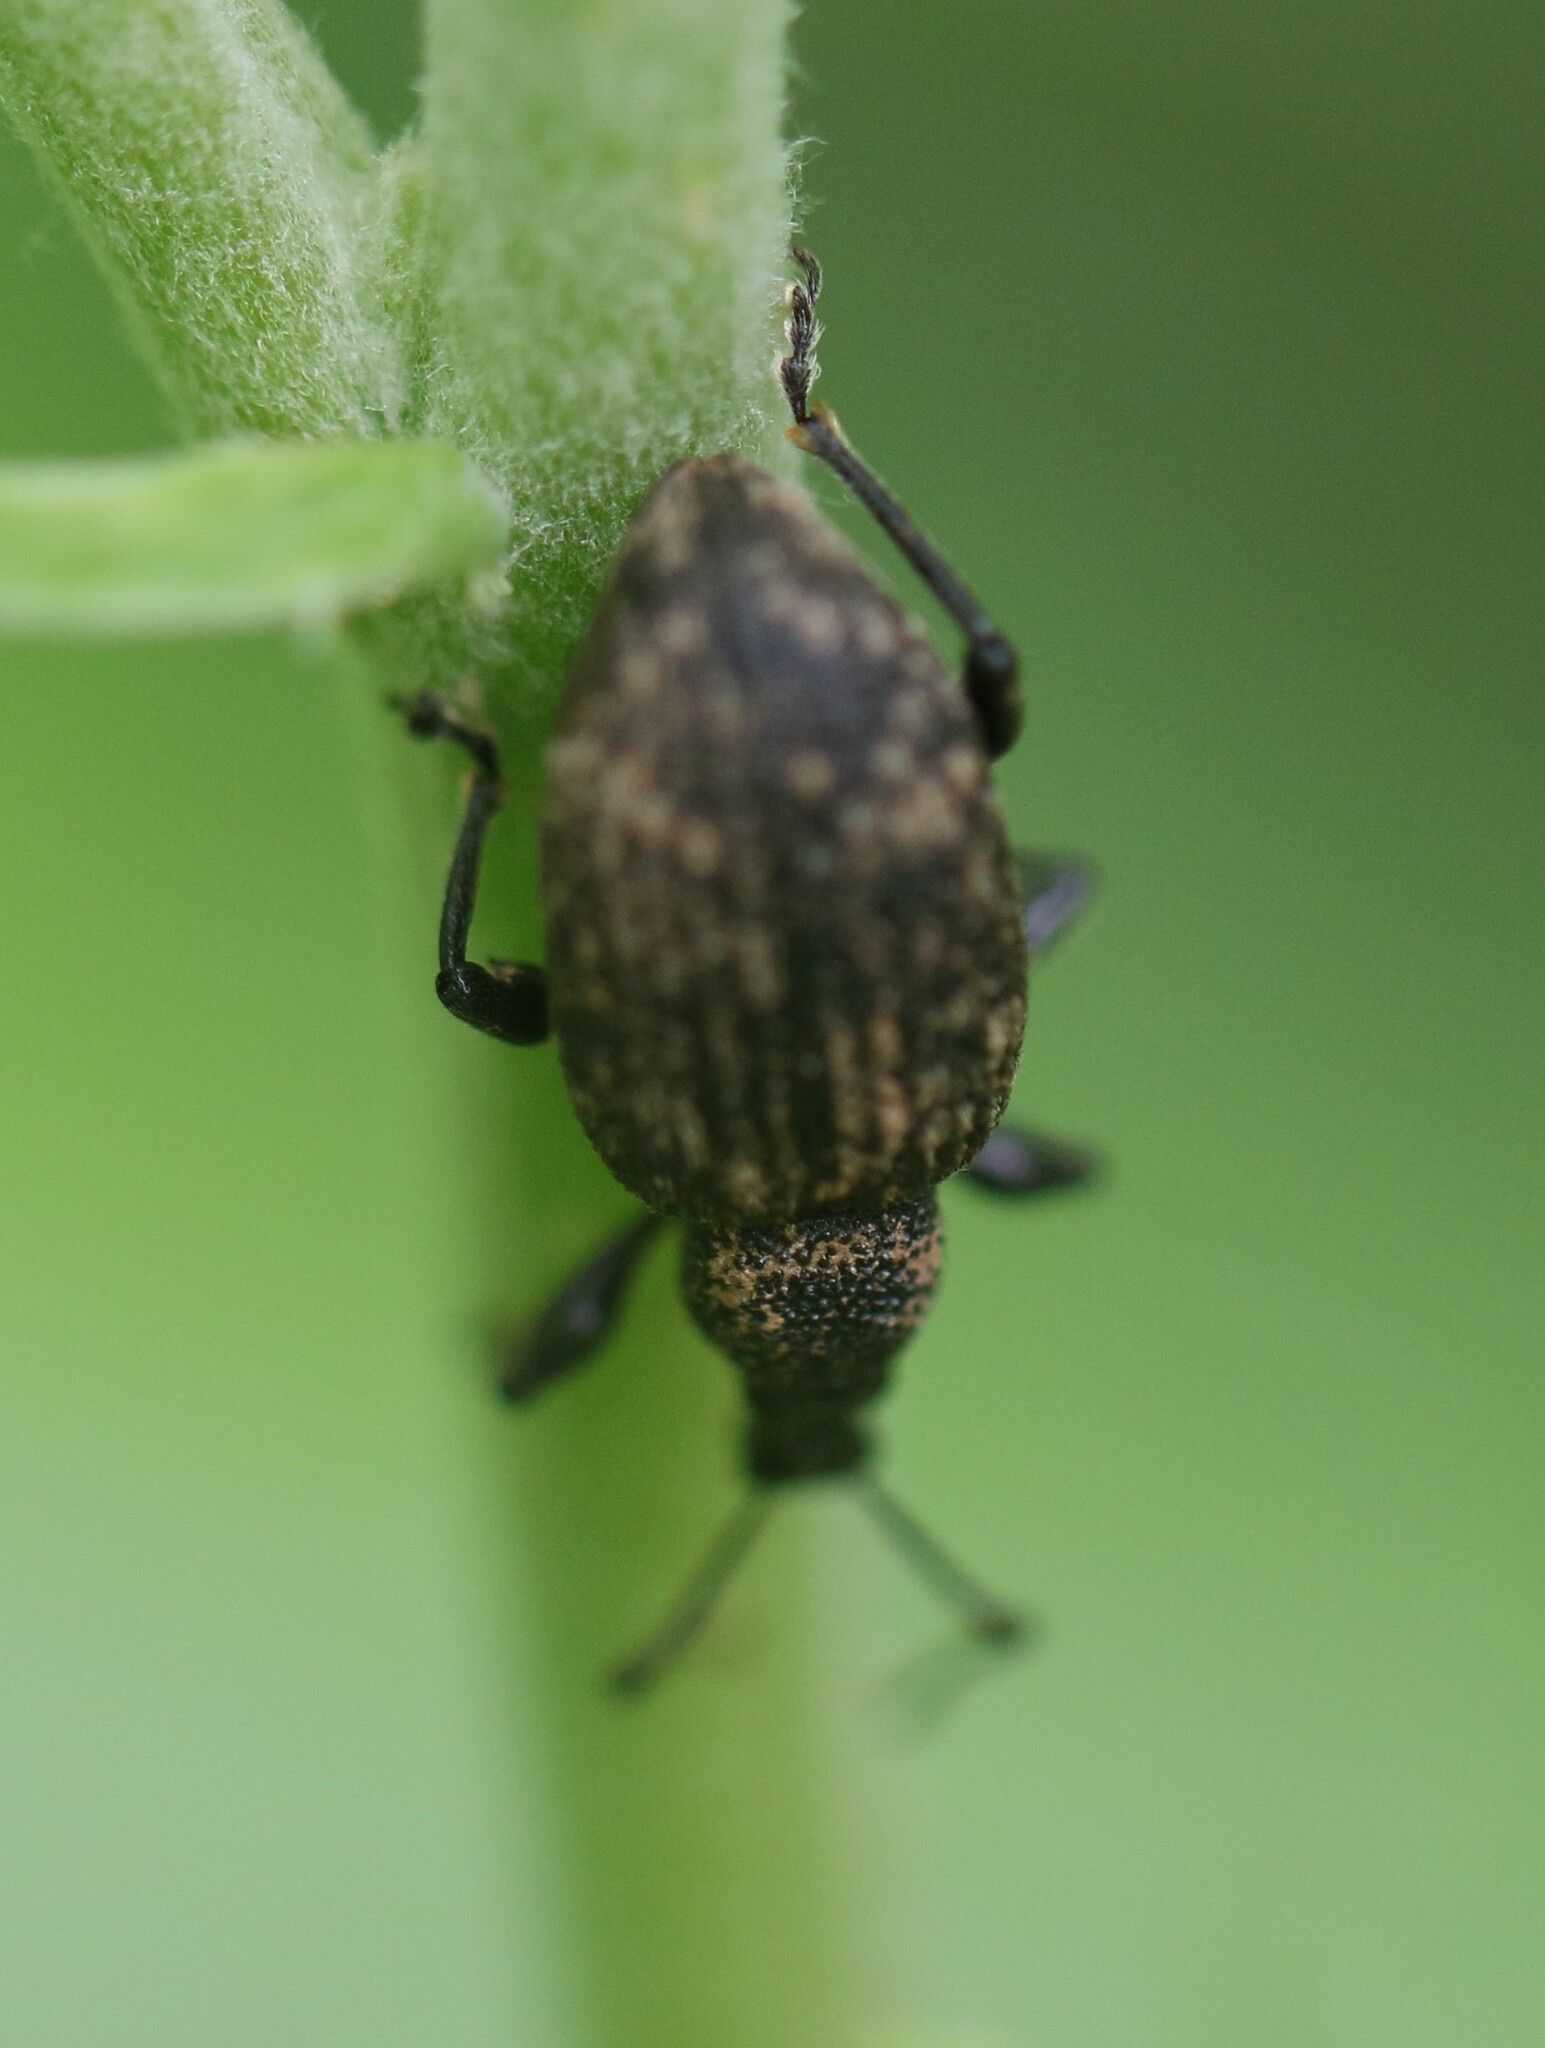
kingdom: Animalia
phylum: Arthropoda
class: Insecta
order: Coleoptera
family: Curculionidae
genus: Otiorhynchus
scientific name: Otiorhynchus sulcatus
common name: Black vine weevil
